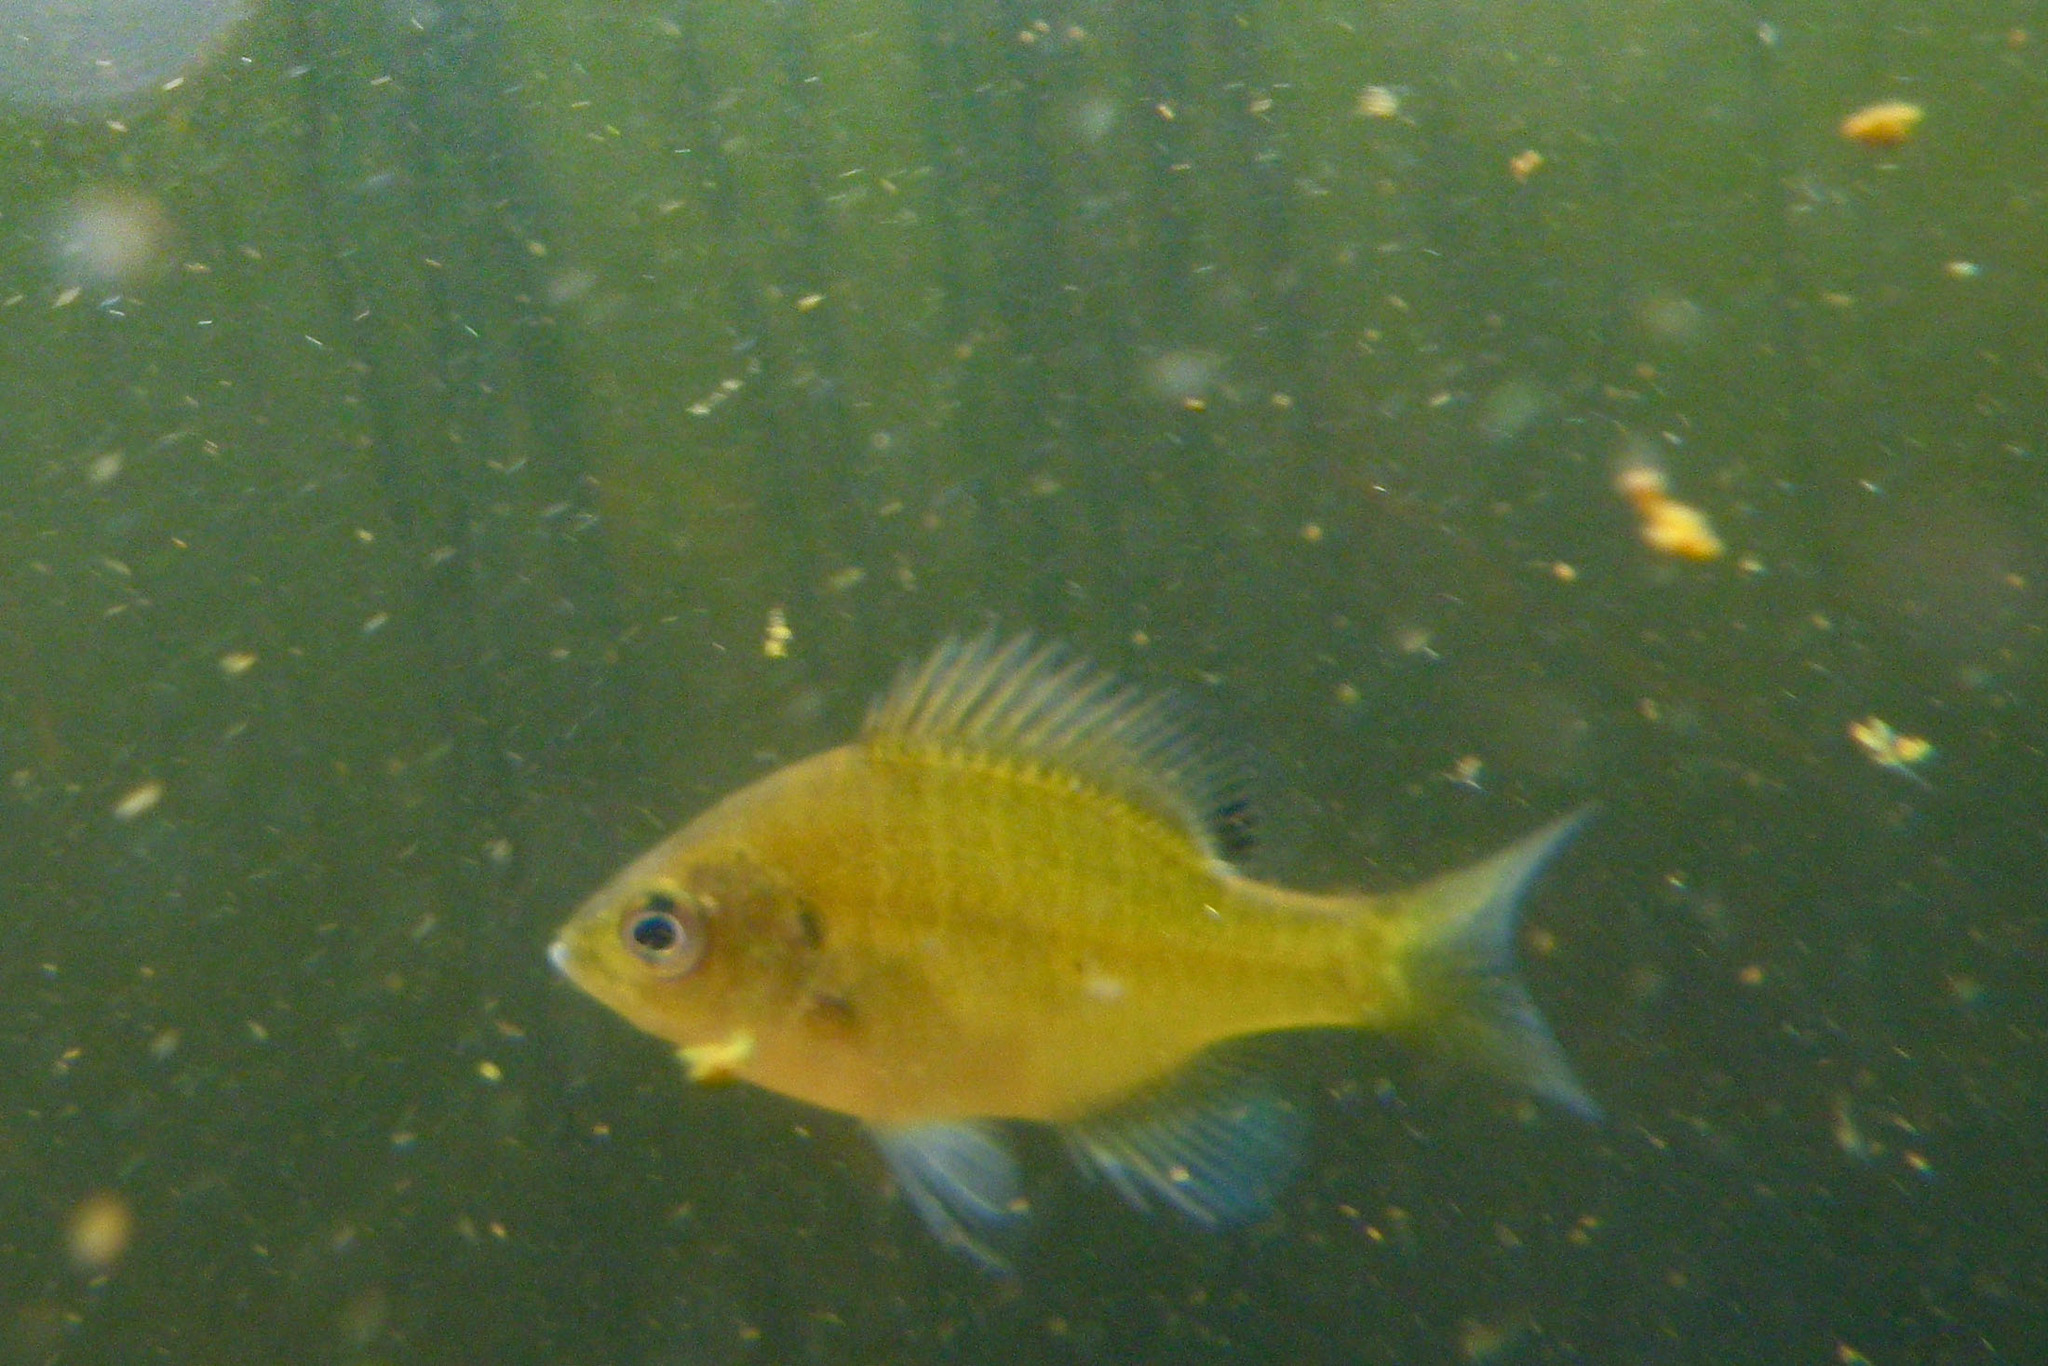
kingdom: Animalia
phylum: Chordata
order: Perciformes
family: Centrarchidae
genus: Lepomis
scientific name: Lepomis macrochirus
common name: Bluegill
